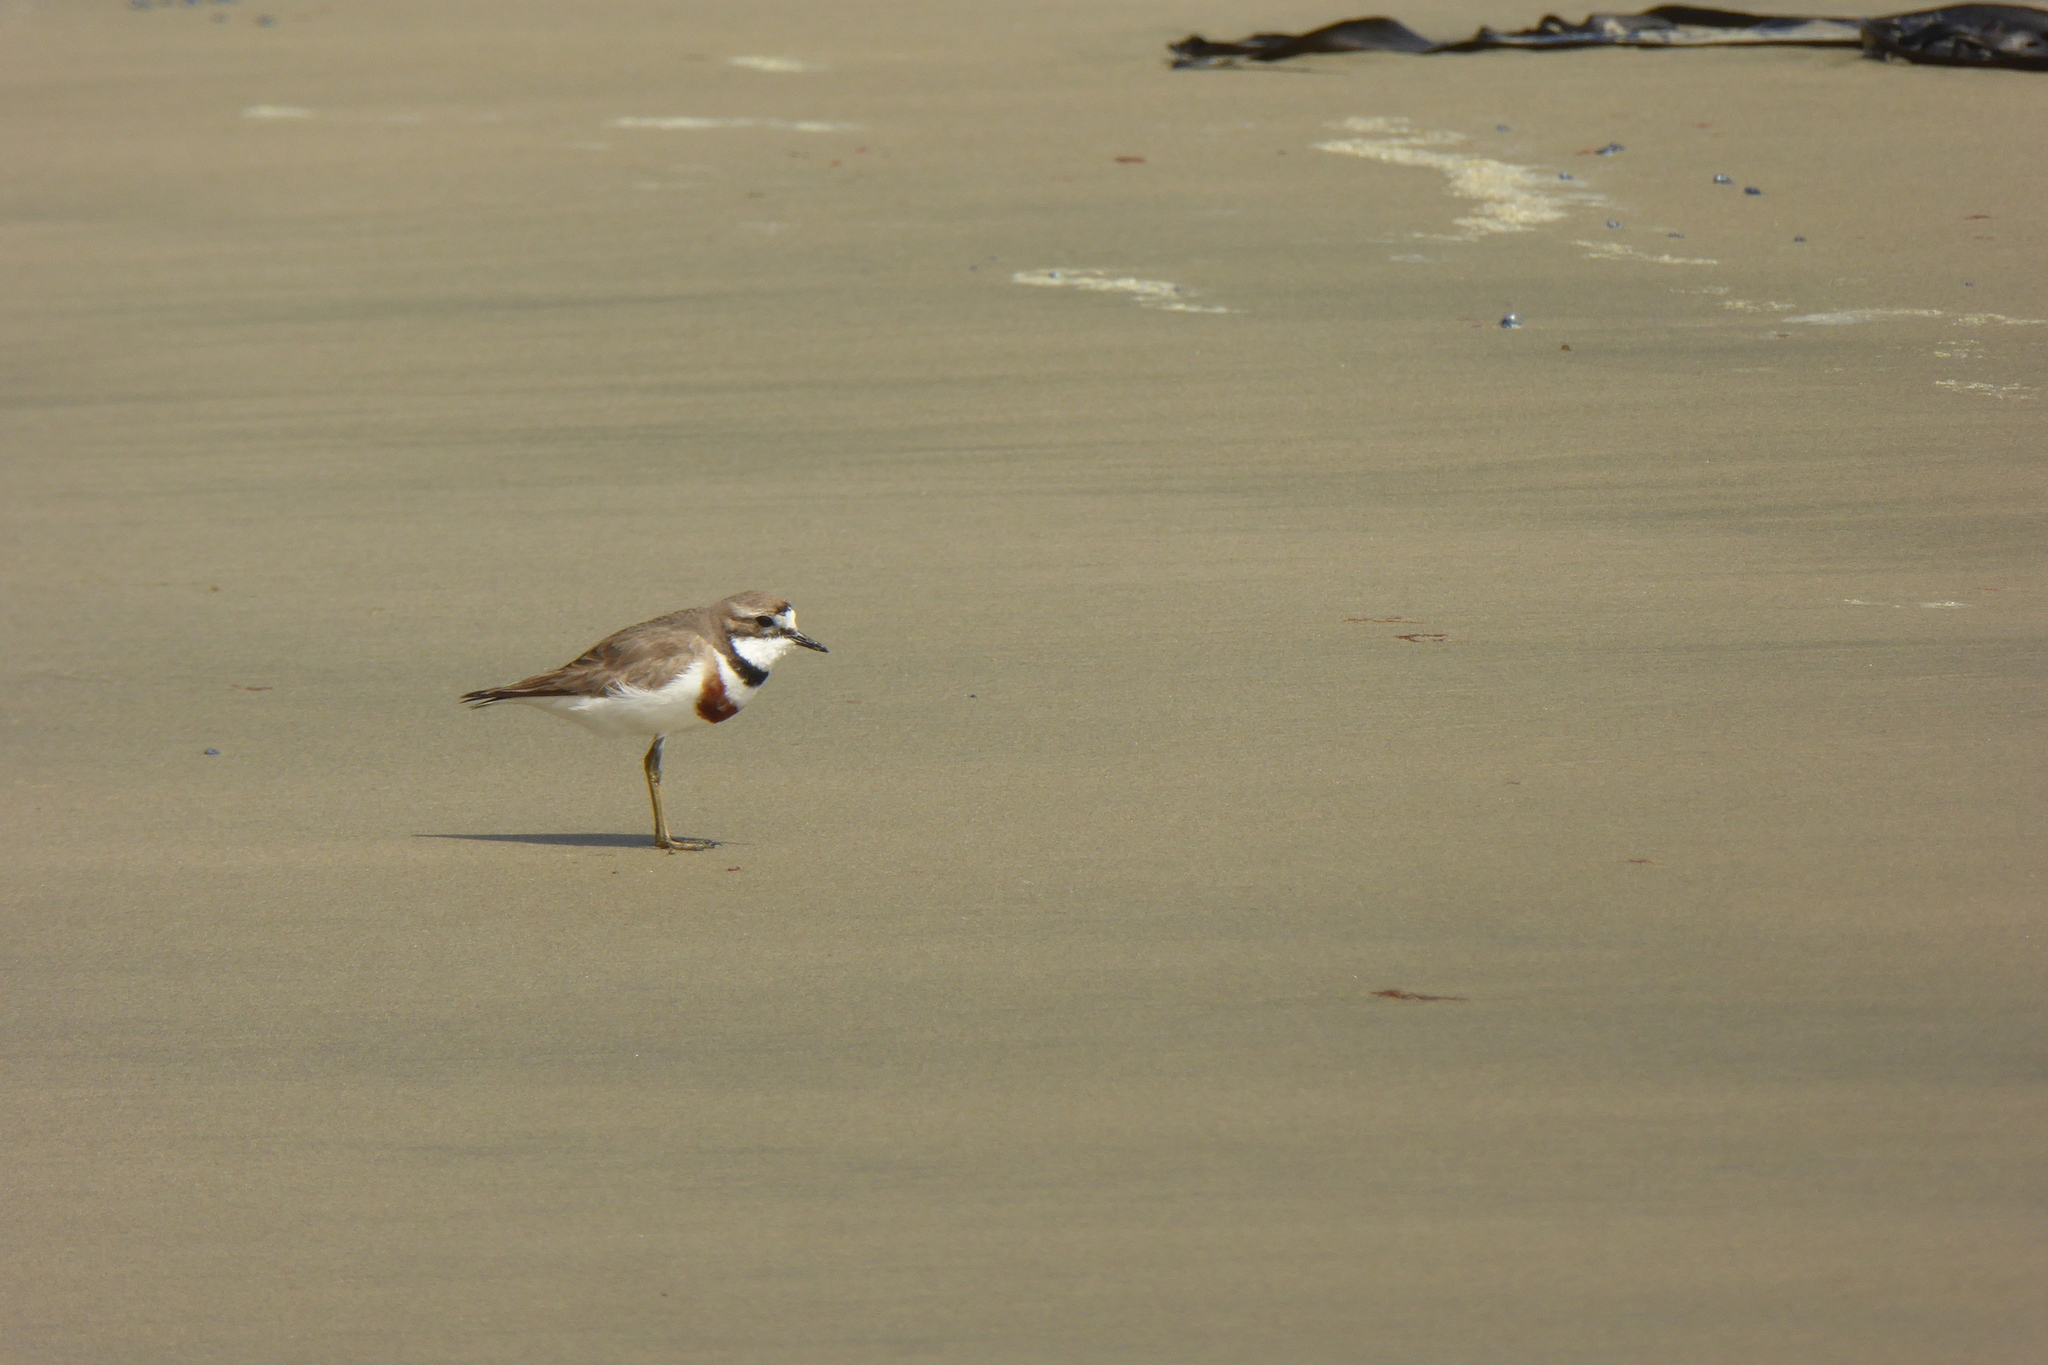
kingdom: Animalia
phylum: Chordata
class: Aves
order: Charadriiformes
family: Charadriidae
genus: Anarhynchus
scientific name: Anarhynchus
